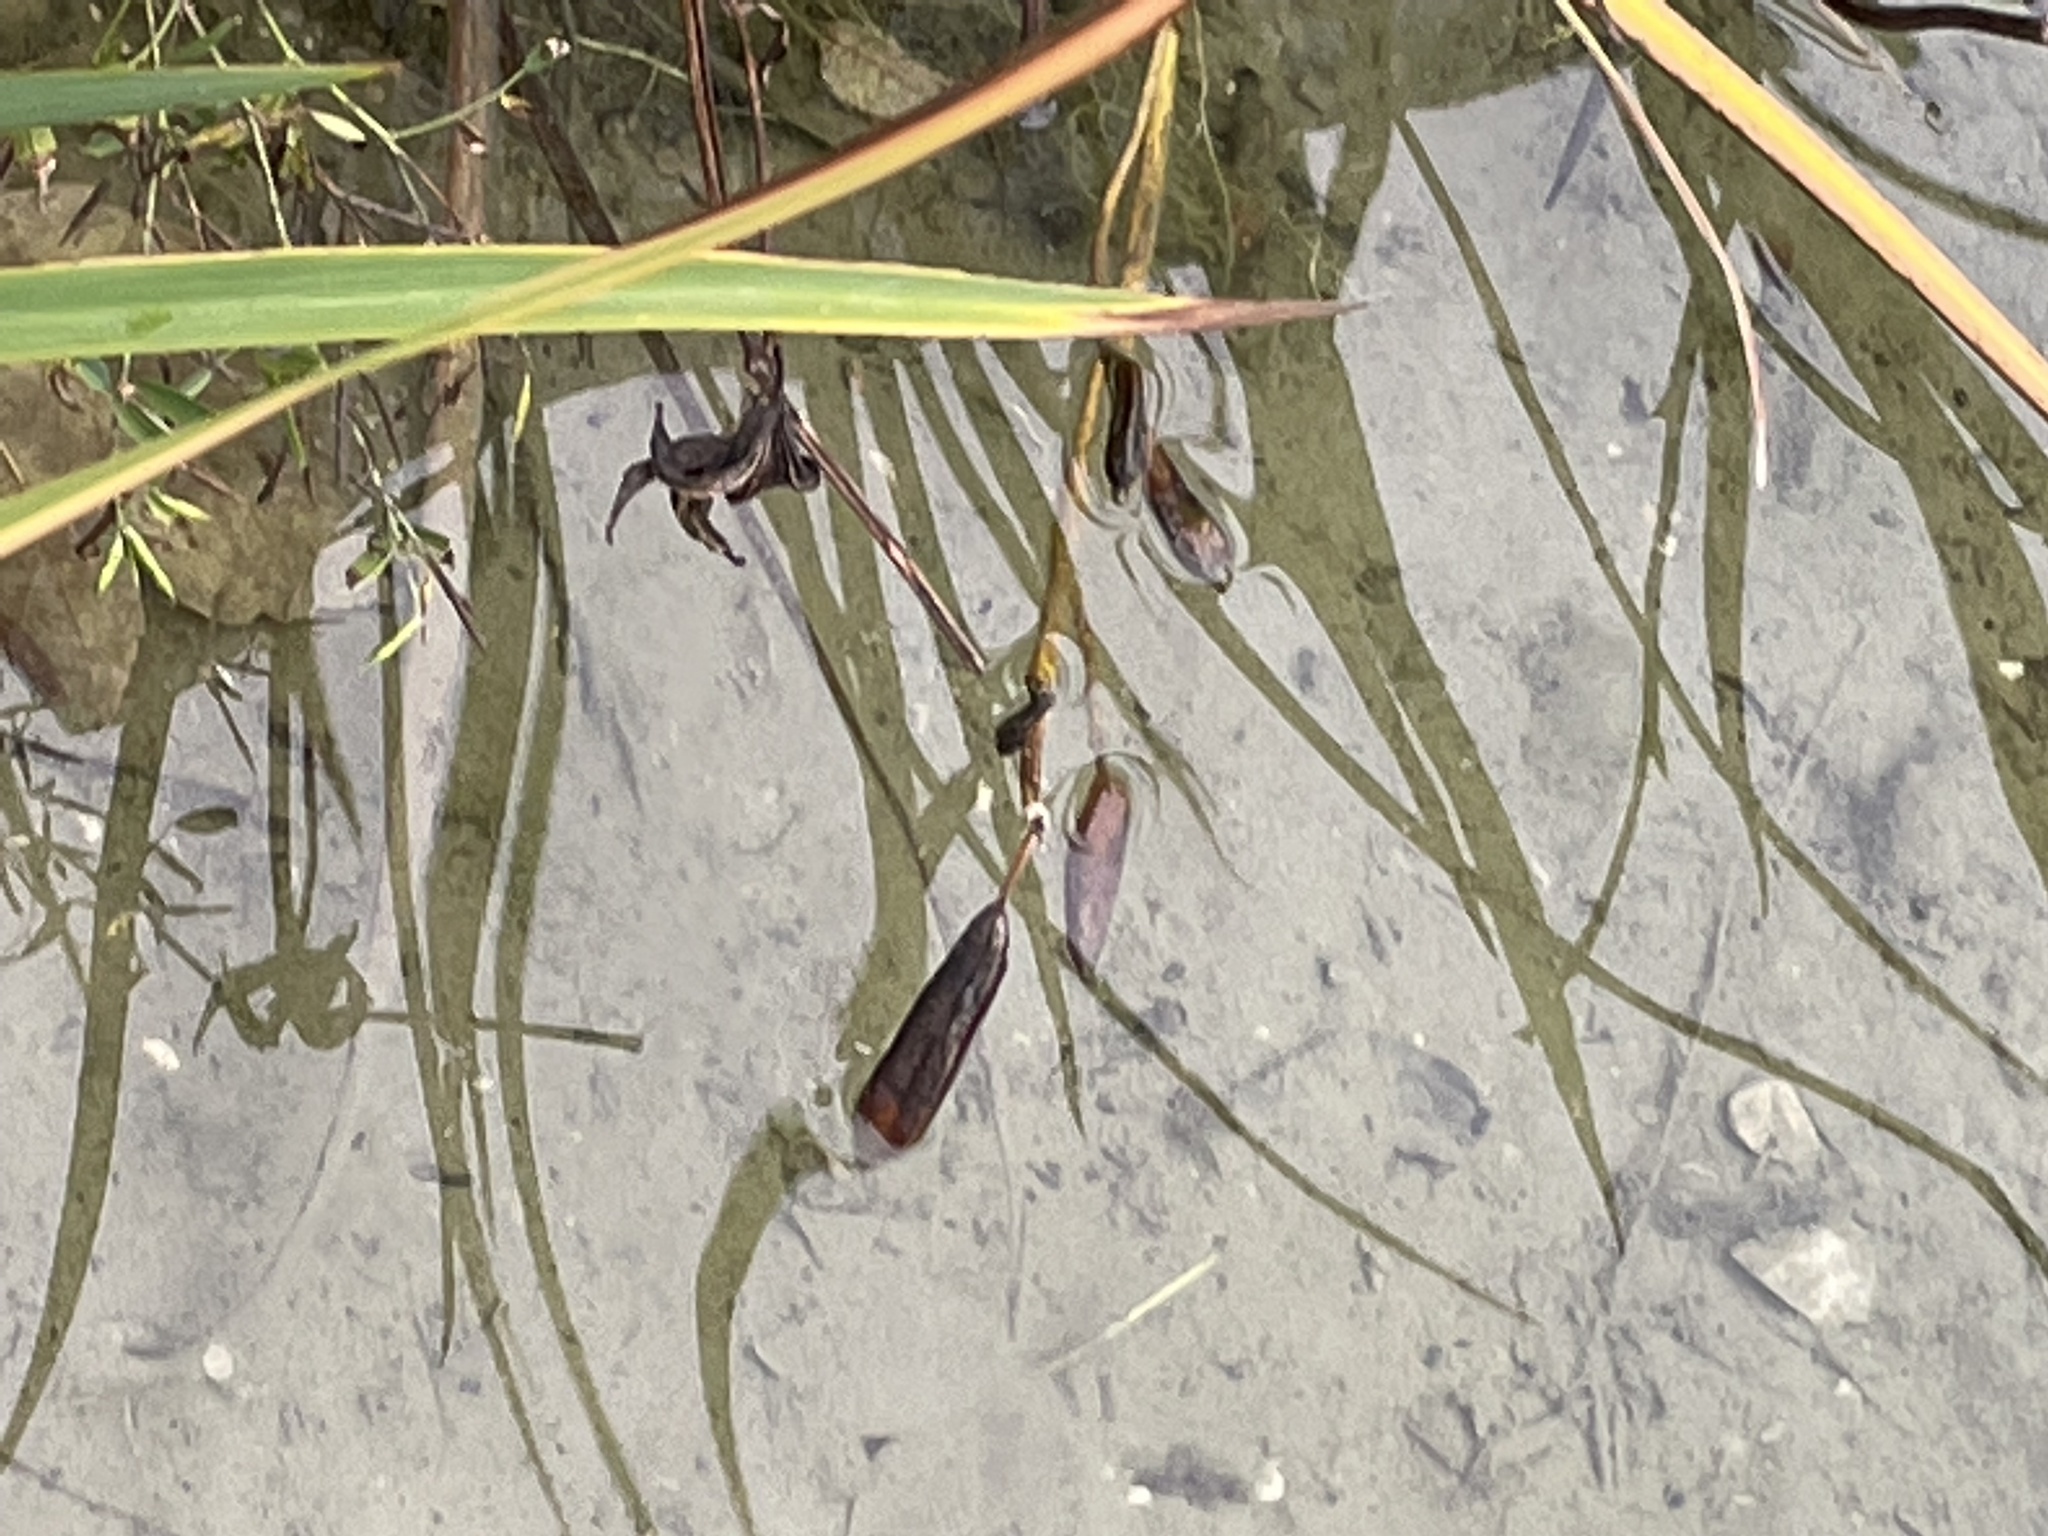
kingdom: Plantae
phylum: Tracheophyta
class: Liliopsida
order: Asparagales
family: Iridaceae
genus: Iris
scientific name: Iris pseudacorus
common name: Yellow flag
